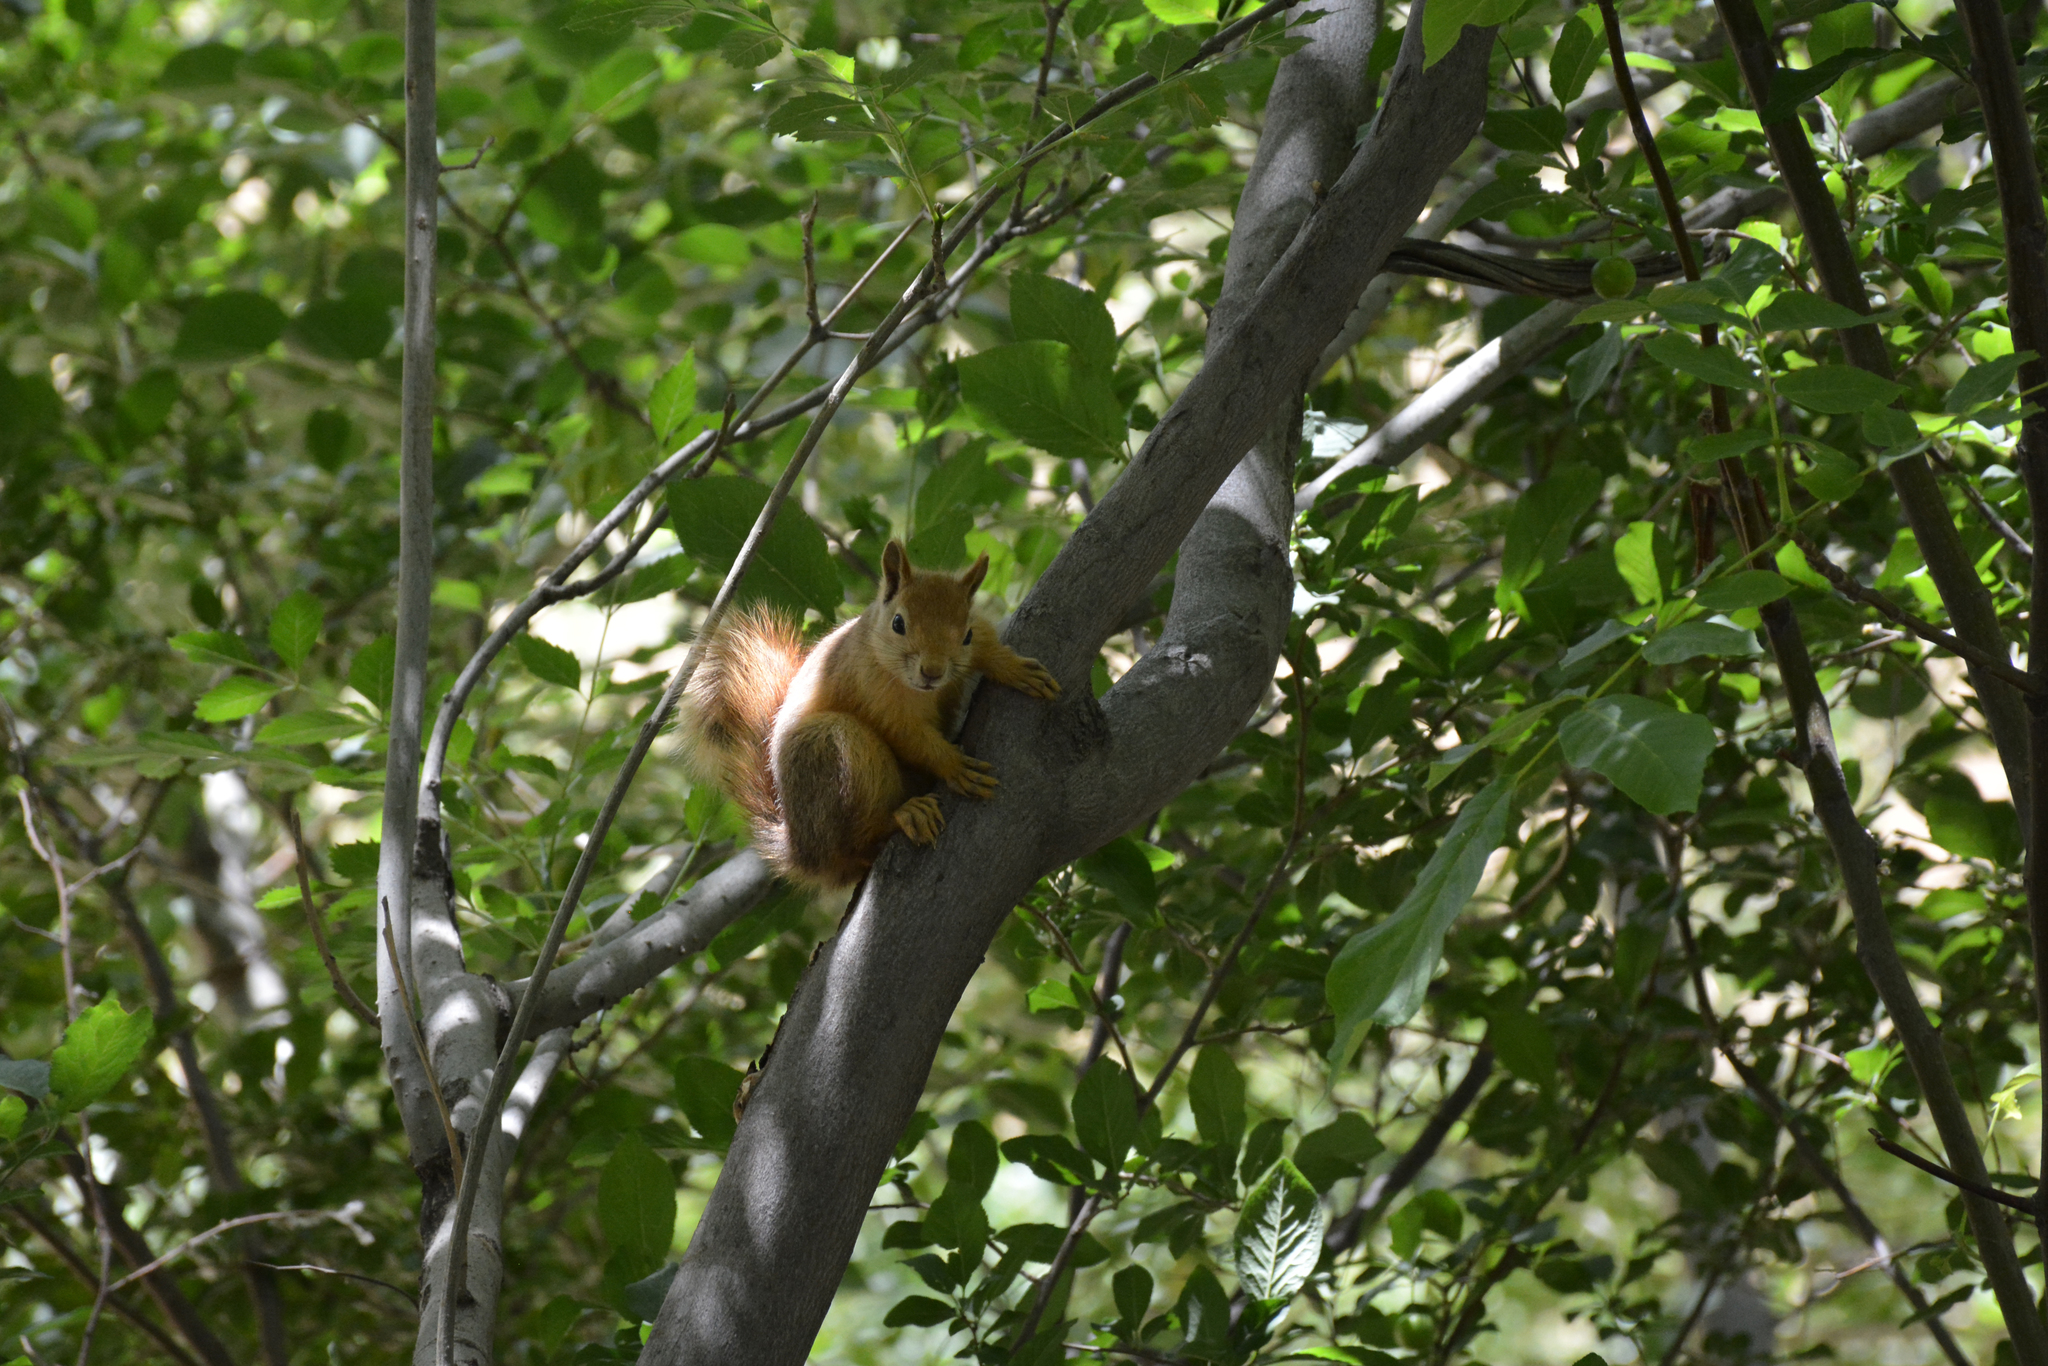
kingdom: Animalia
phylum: Chordata
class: Mammalia
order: Rodentia
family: Sciuridae
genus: Sciurus
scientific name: Sciurus anomalus
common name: Caucasian squirrel
